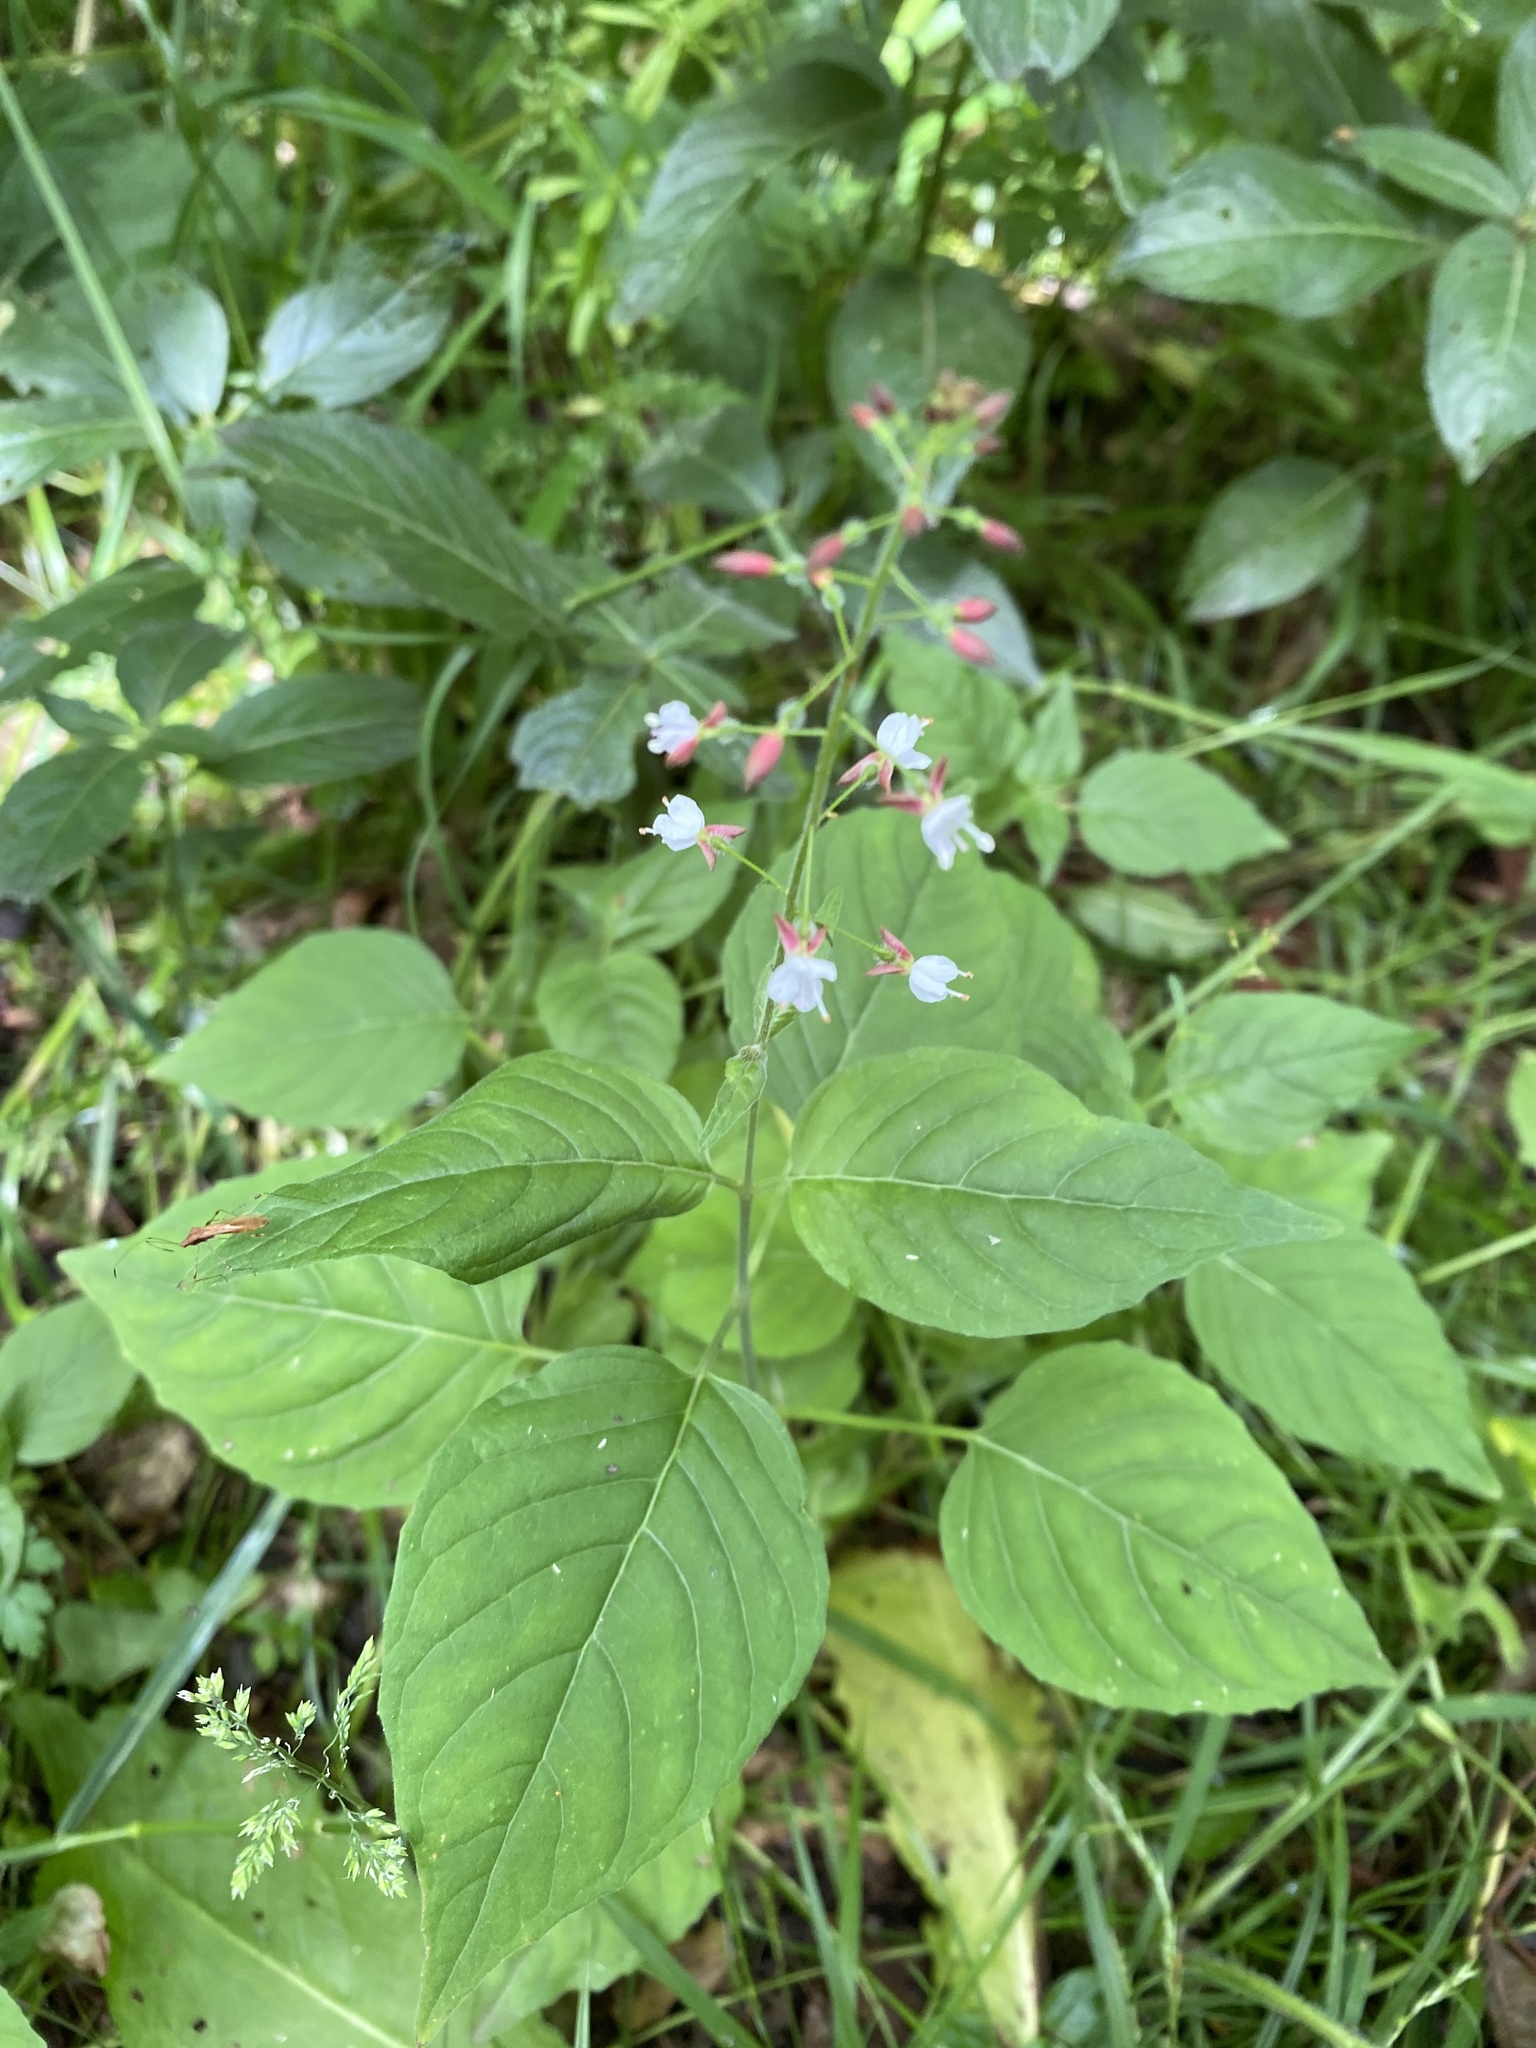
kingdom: Plantae
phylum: Tracheophyta
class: Magnoliopsida
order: Myrtales
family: Onagraceae
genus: Circaea
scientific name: Circaea lutetiana
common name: Enchanter's-nightshade
